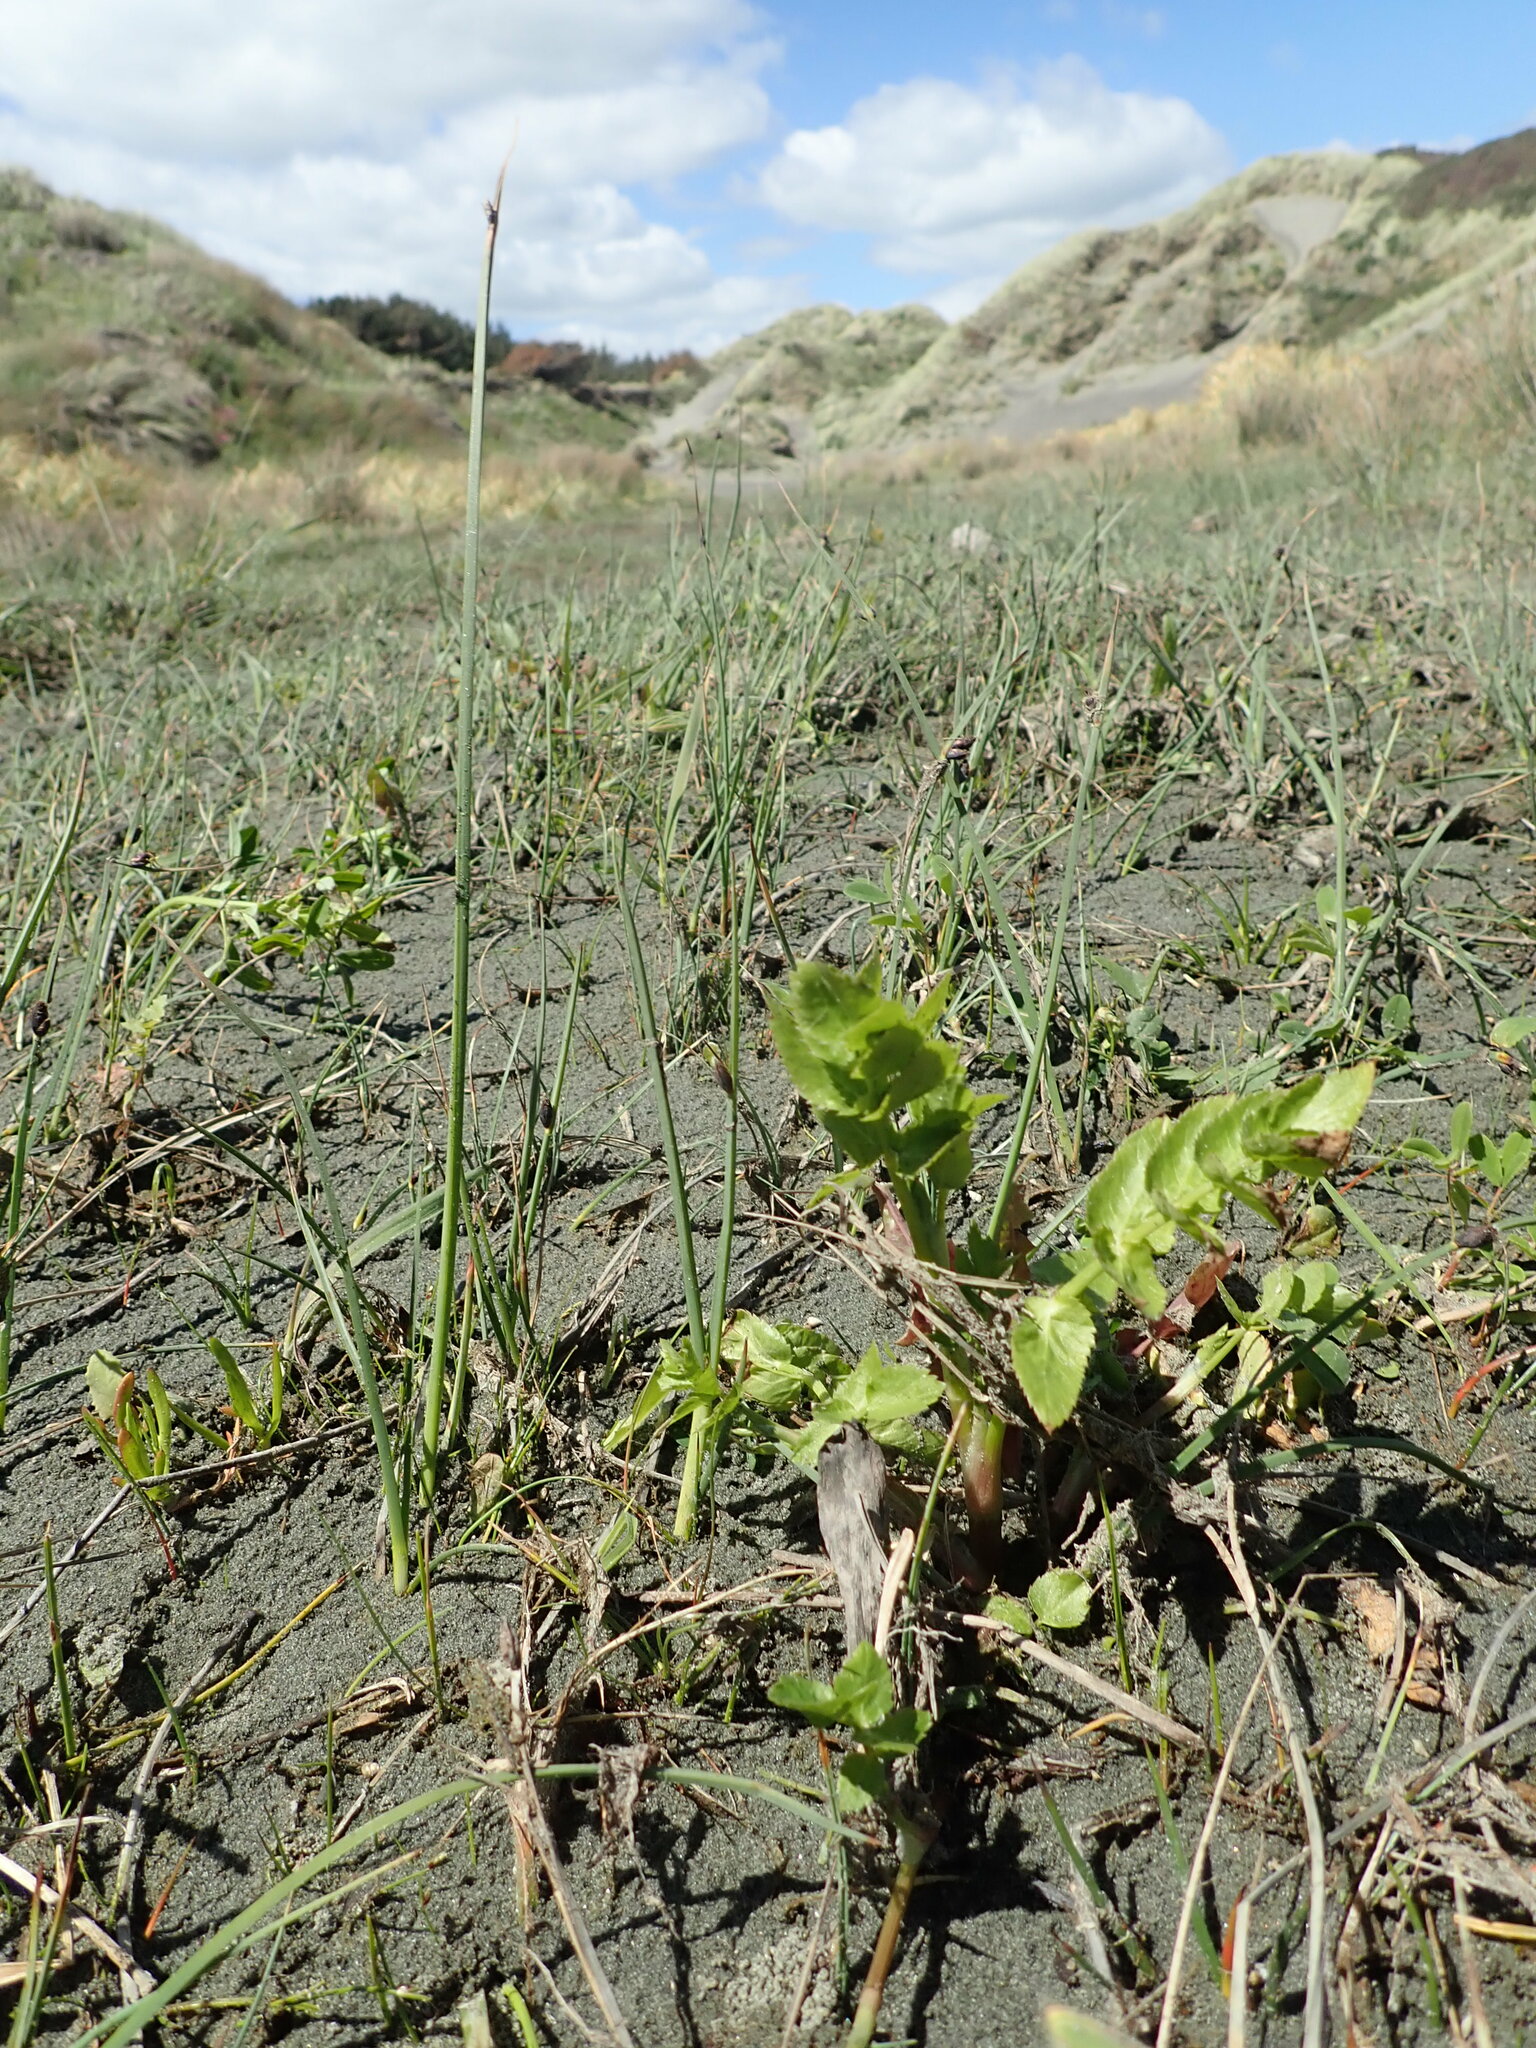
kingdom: Plantae
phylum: Tracheophyta
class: Magnoliopsida
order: Apiales
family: Apiaceae
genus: Helosciadium
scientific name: Helosciadium nodiflorum
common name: Fool's-watercress
